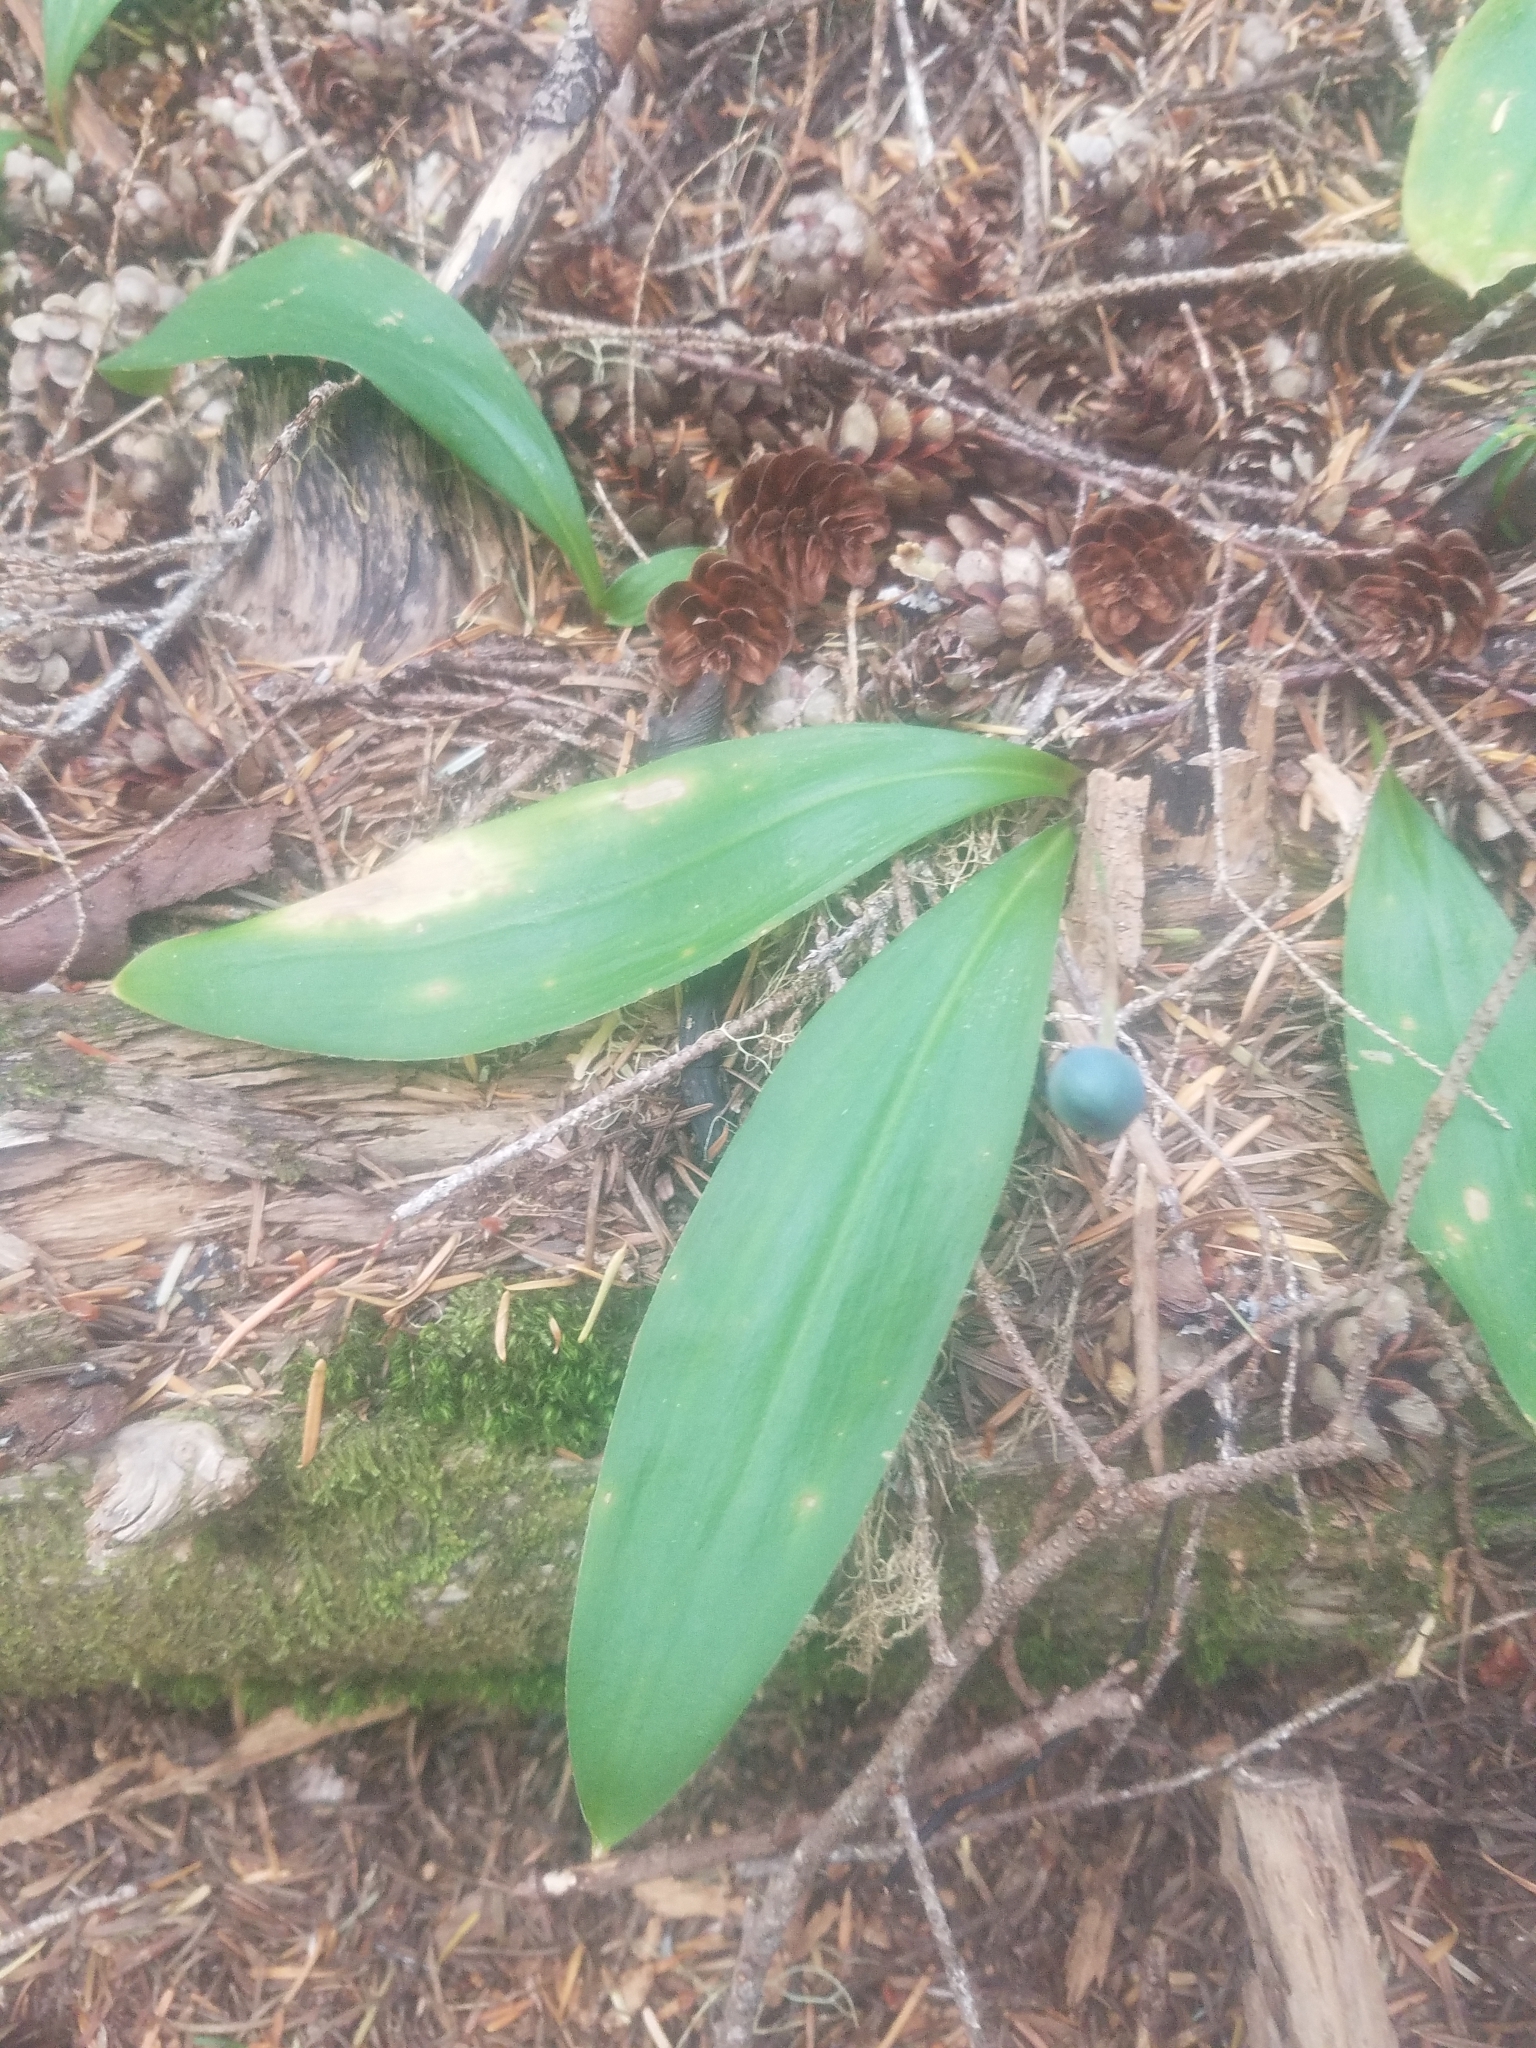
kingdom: Plantae
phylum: Tracheophyta
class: Liliopsida
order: Liliales
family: Liliaceae
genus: Clintonia
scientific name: Clintonia uniflora
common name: Queen's cup
